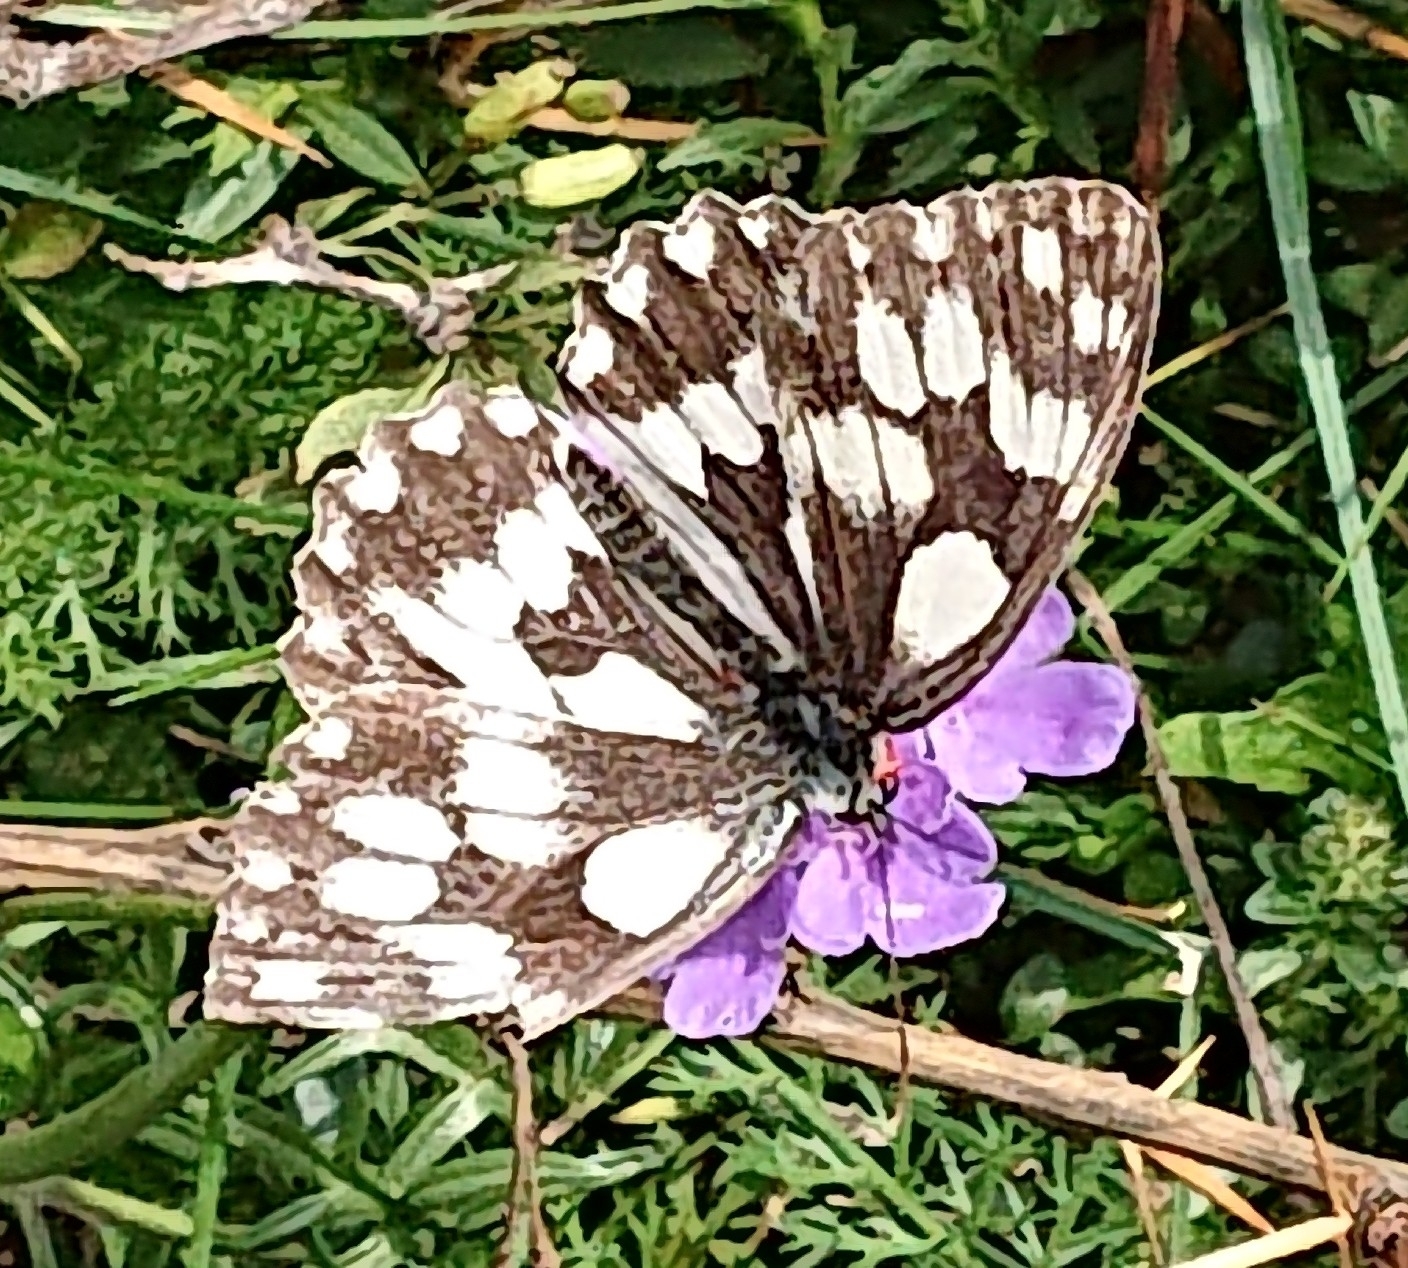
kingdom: Animalia
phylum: Arthropoda
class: Insecta
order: Lepidoptera
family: Nymphalidae
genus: Melanargia
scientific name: Melanargia galathea
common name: Marbled white
